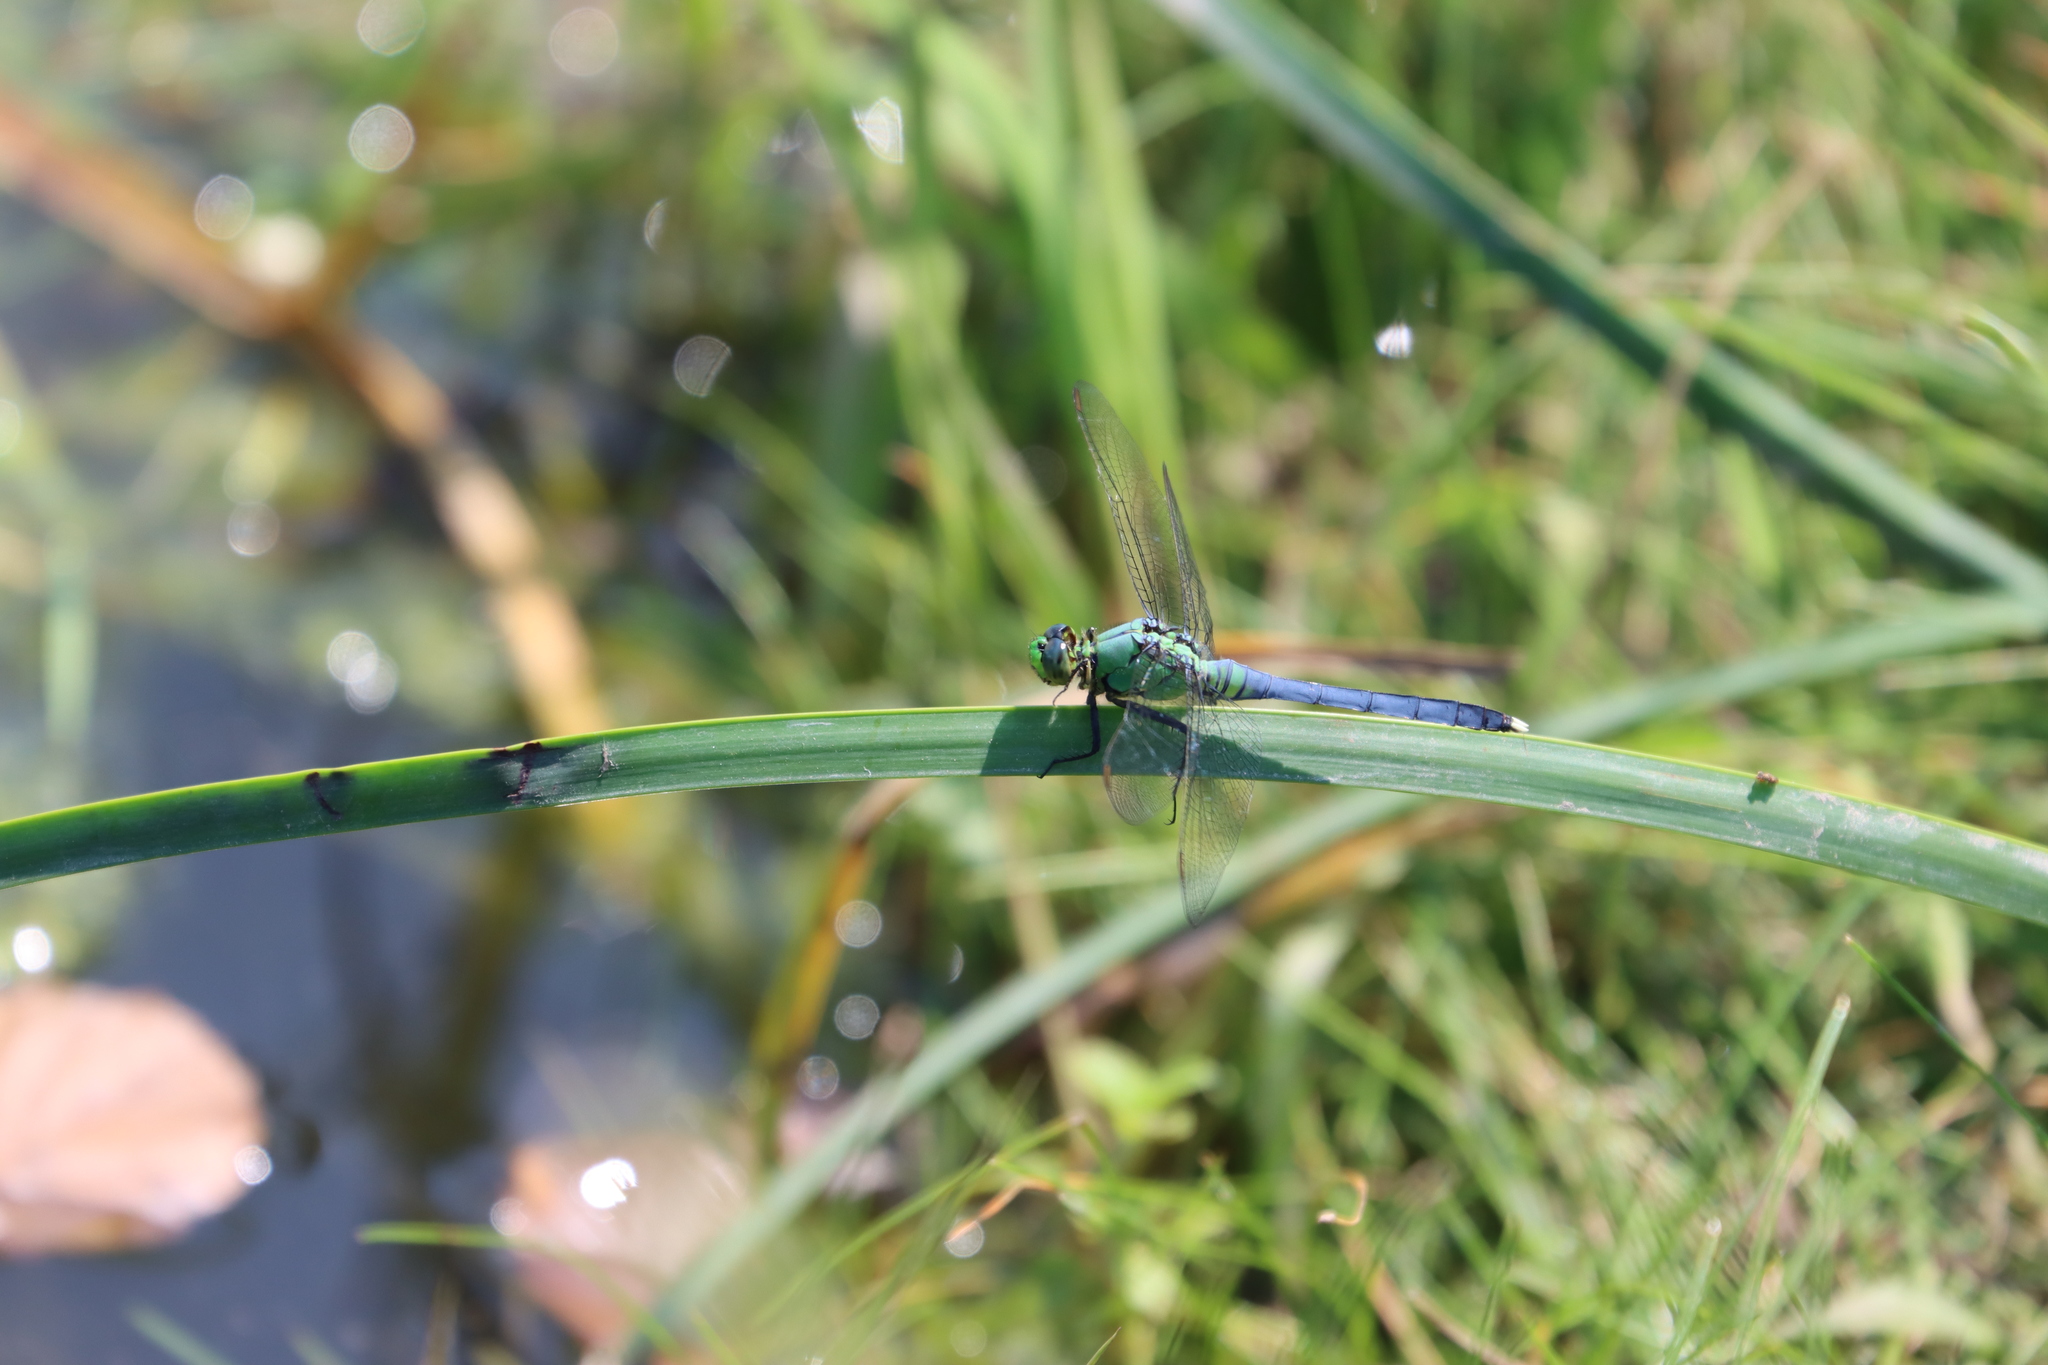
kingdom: Animalia
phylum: Arthropoda
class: Insecta
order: Odonata
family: Libellulidae
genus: Erythemis
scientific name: Erythemis simplicicollis
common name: Eastern pondhawk
